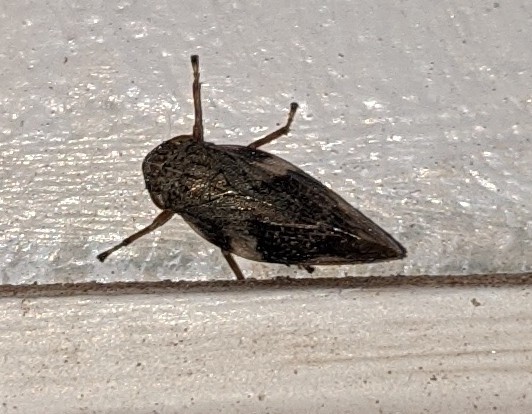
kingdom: Animalia
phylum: Arthropoda
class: Insecta
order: Hemiptera
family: Aphrophoridae
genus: Aphrophora
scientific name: Aphrophora alni
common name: European alder spittlebug
